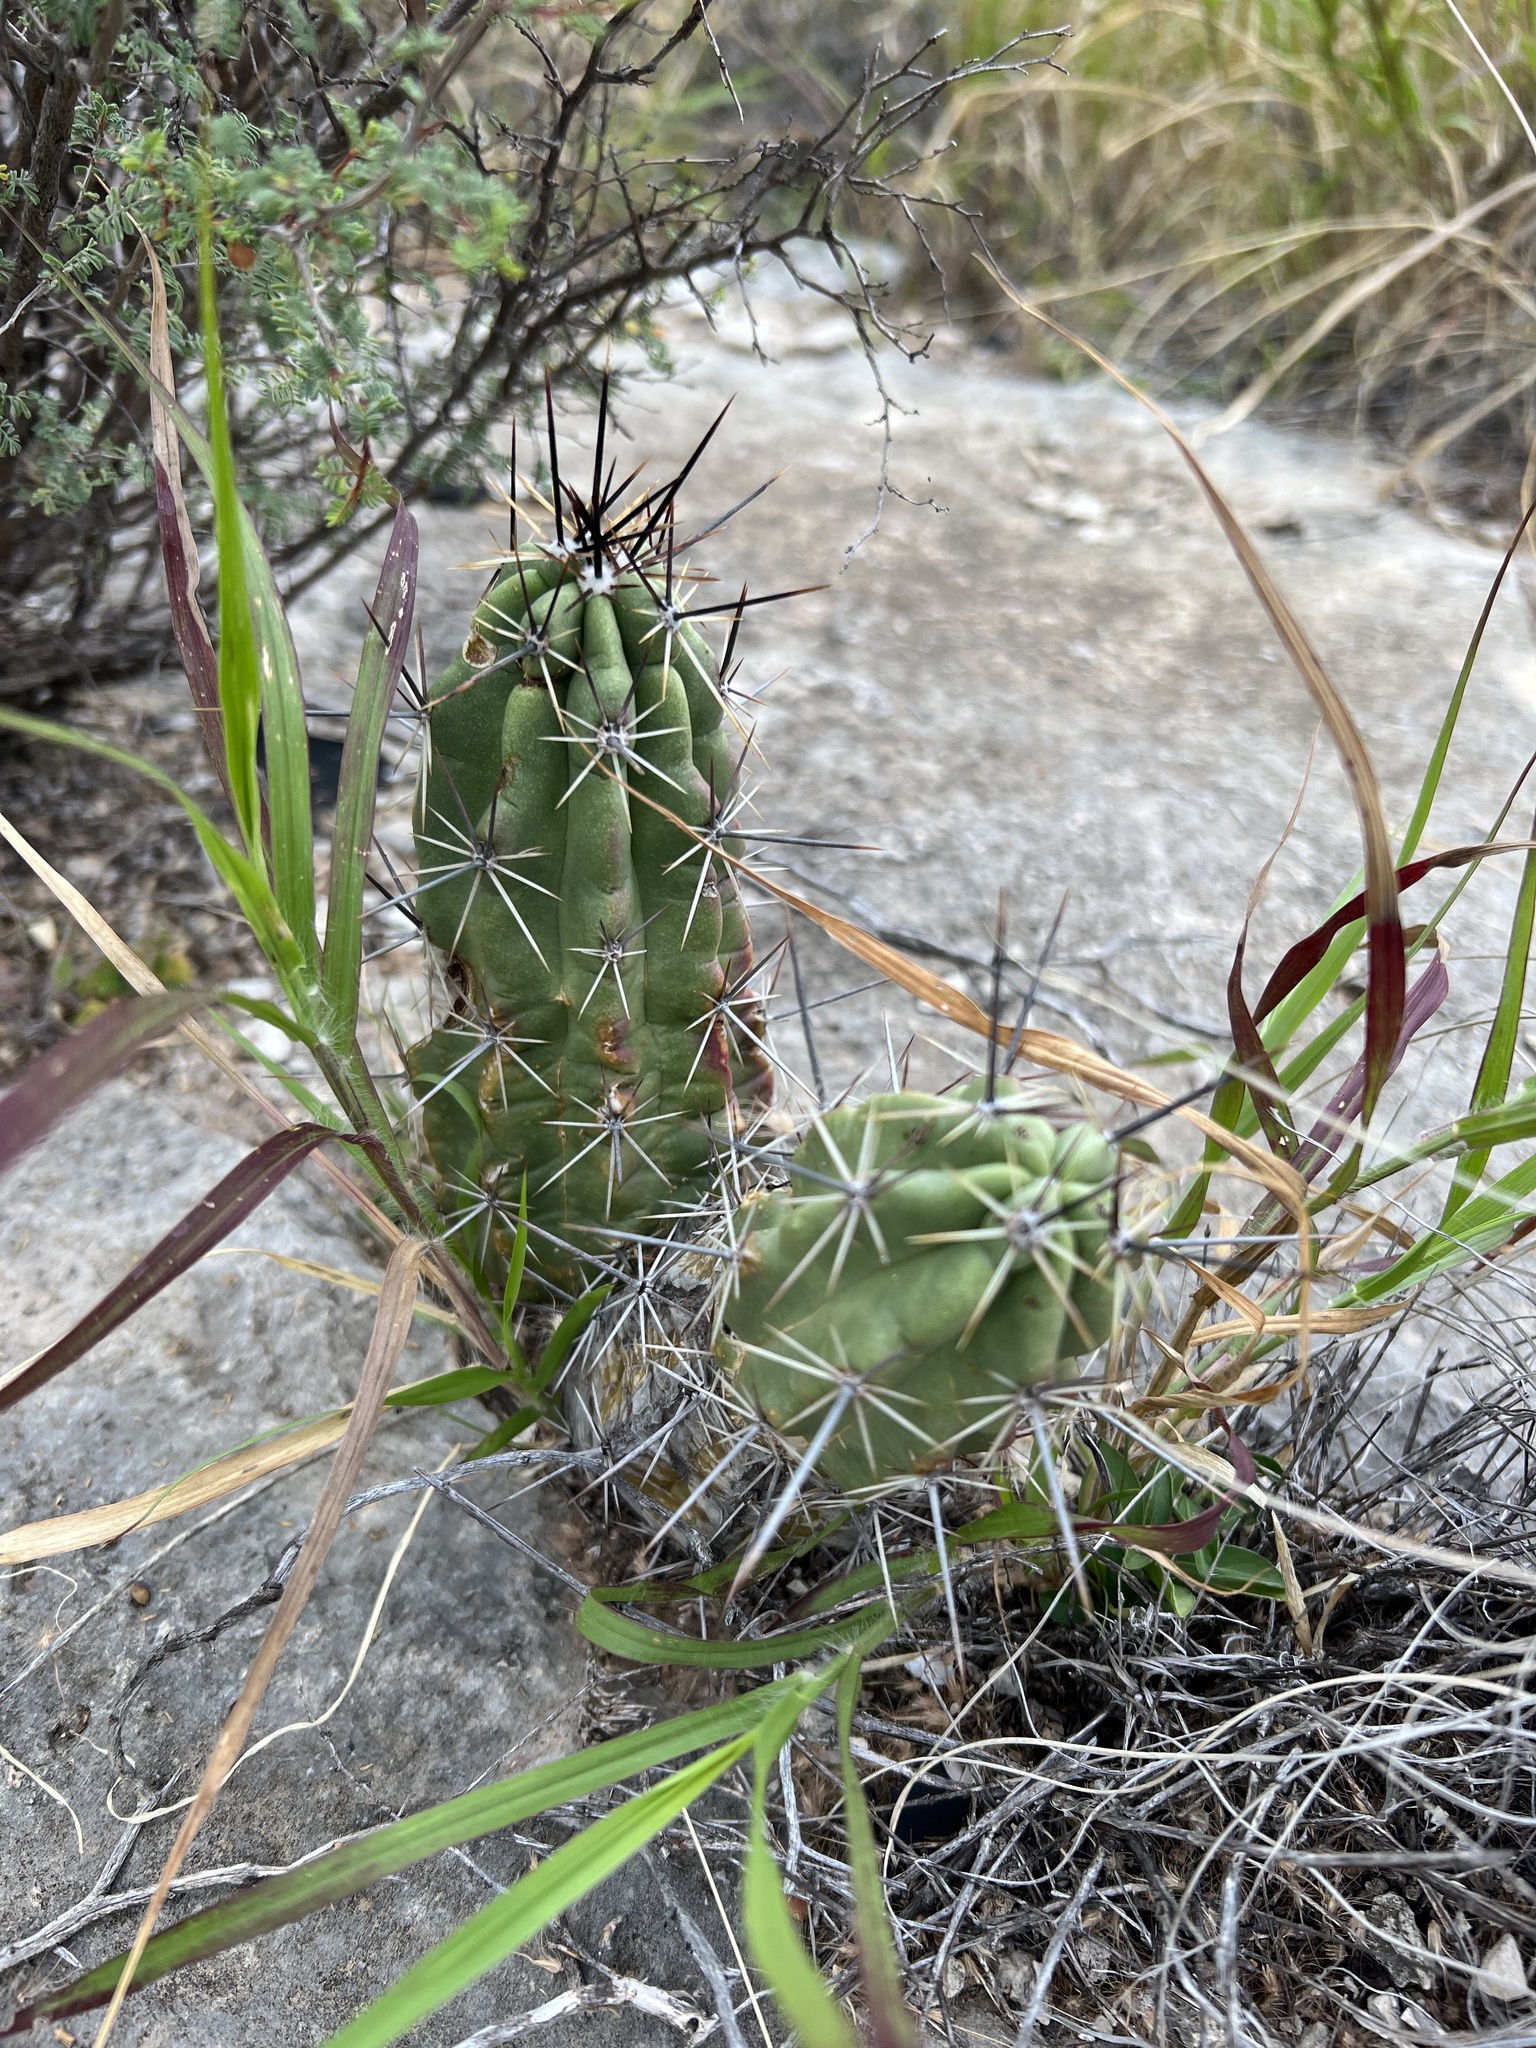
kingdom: Plantae
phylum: Tracheophyta
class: Magnoliopsida
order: Caryophyllales
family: Cactaceae
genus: Echinocereus
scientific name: Echinocereus enneacanthus
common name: Pitaya
